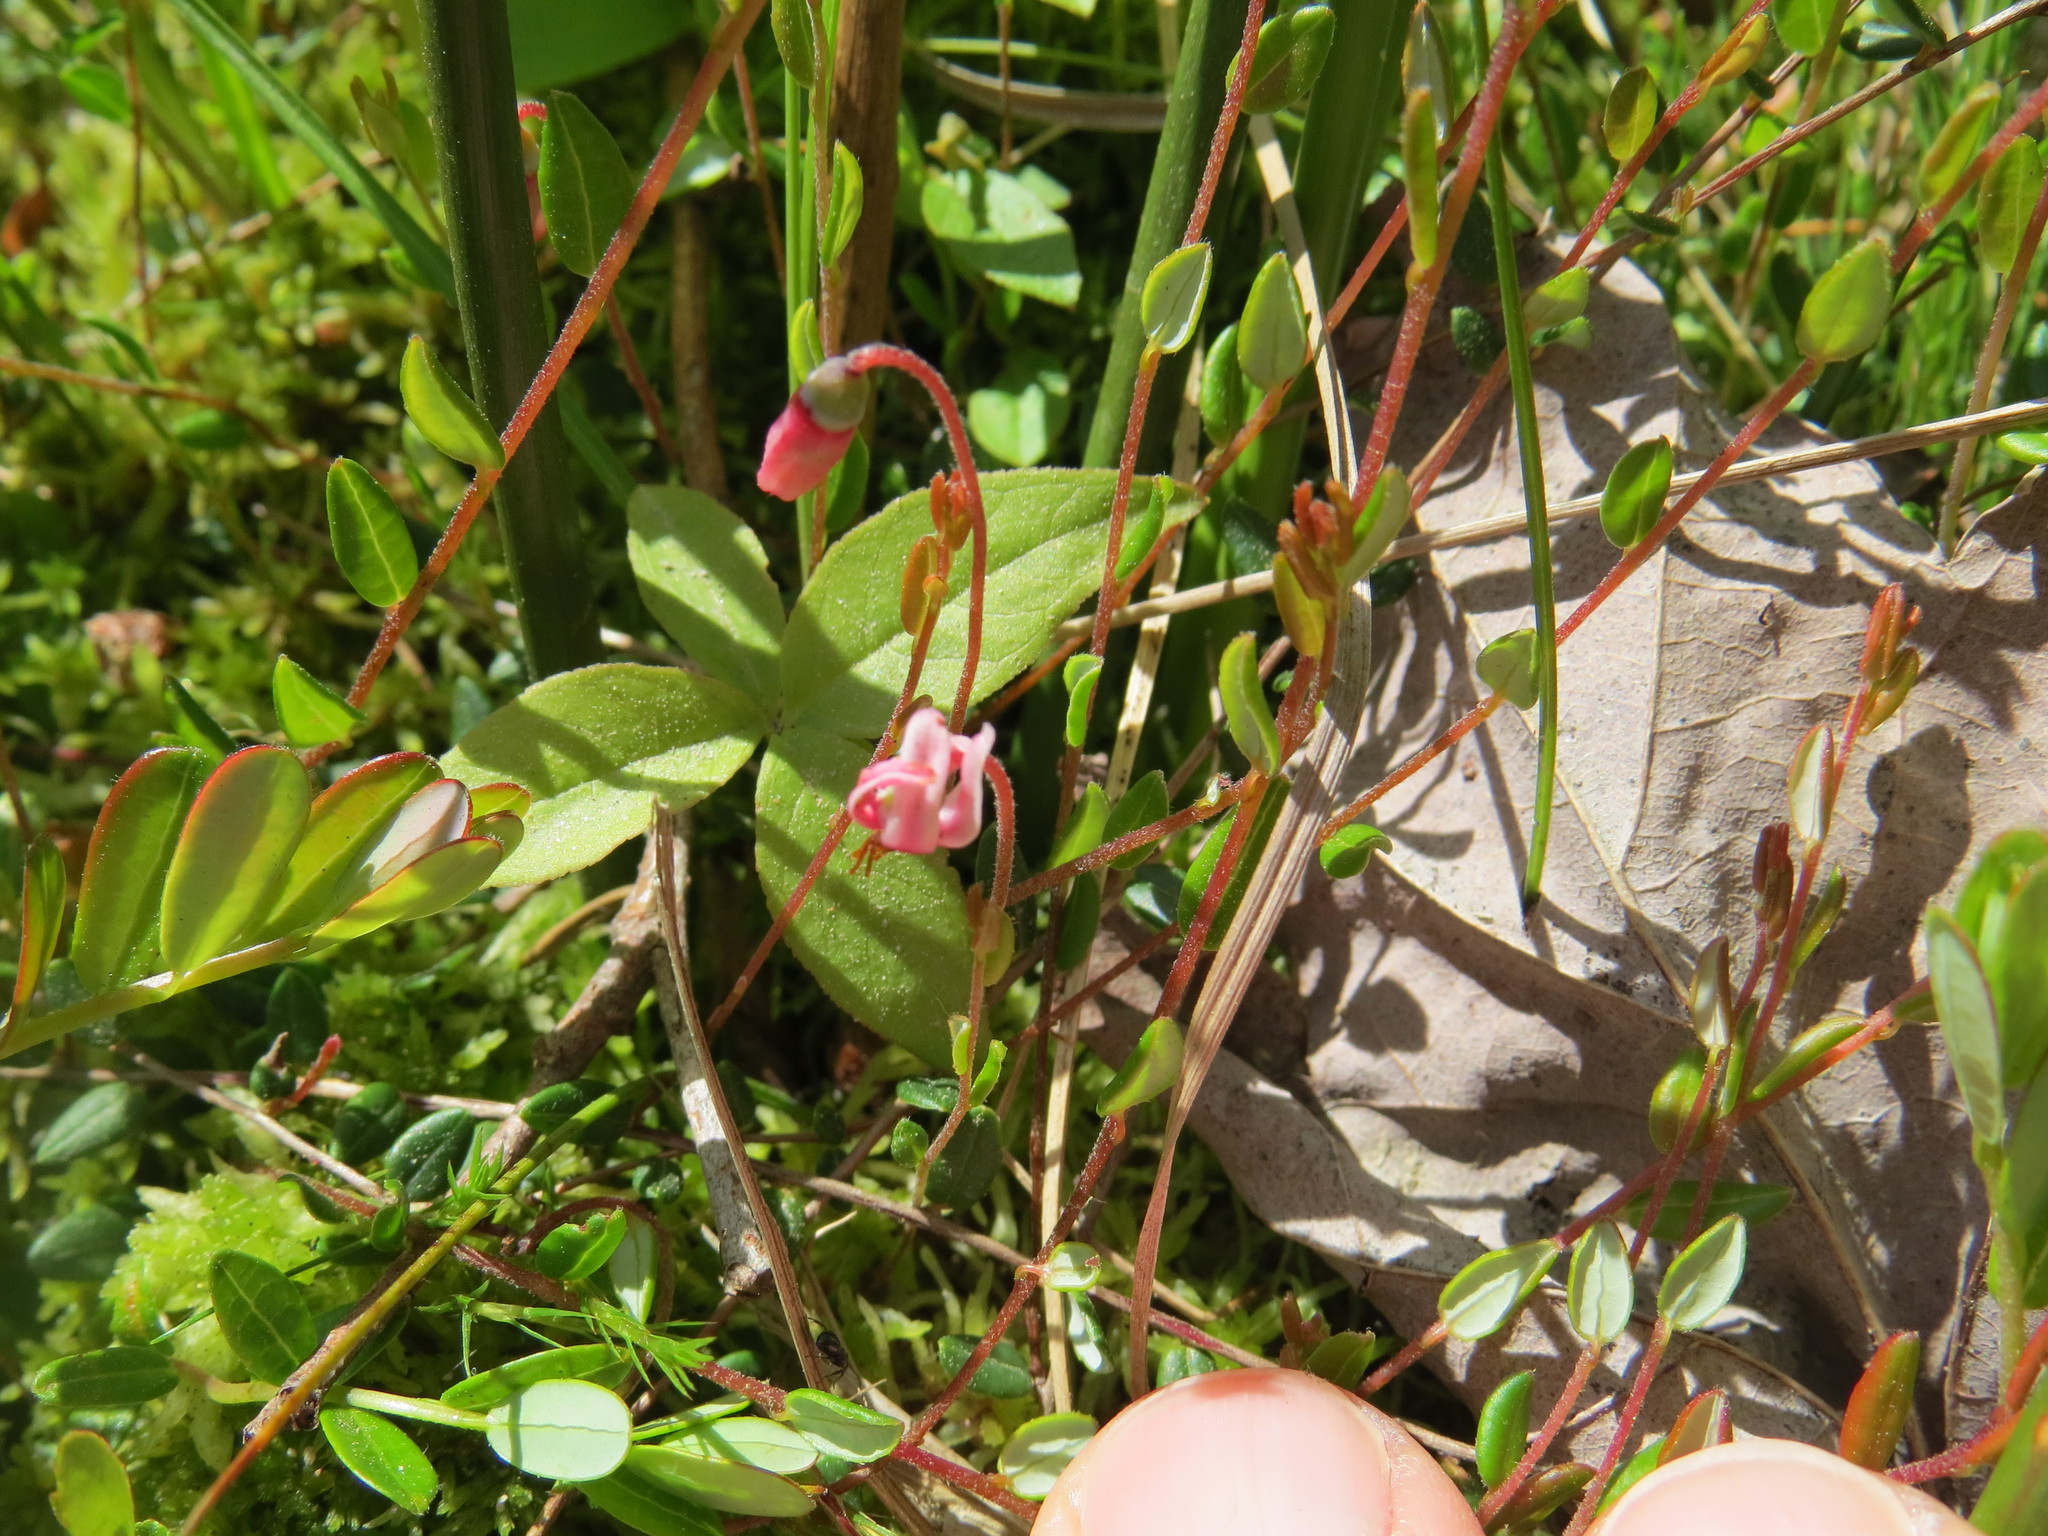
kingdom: Plantae
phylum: Tracheophyta
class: Magnoliopsida
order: Ericales
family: Ericaceae
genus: Vaccinium
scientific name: Vaccinium oxycoccos
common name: Cranberry
